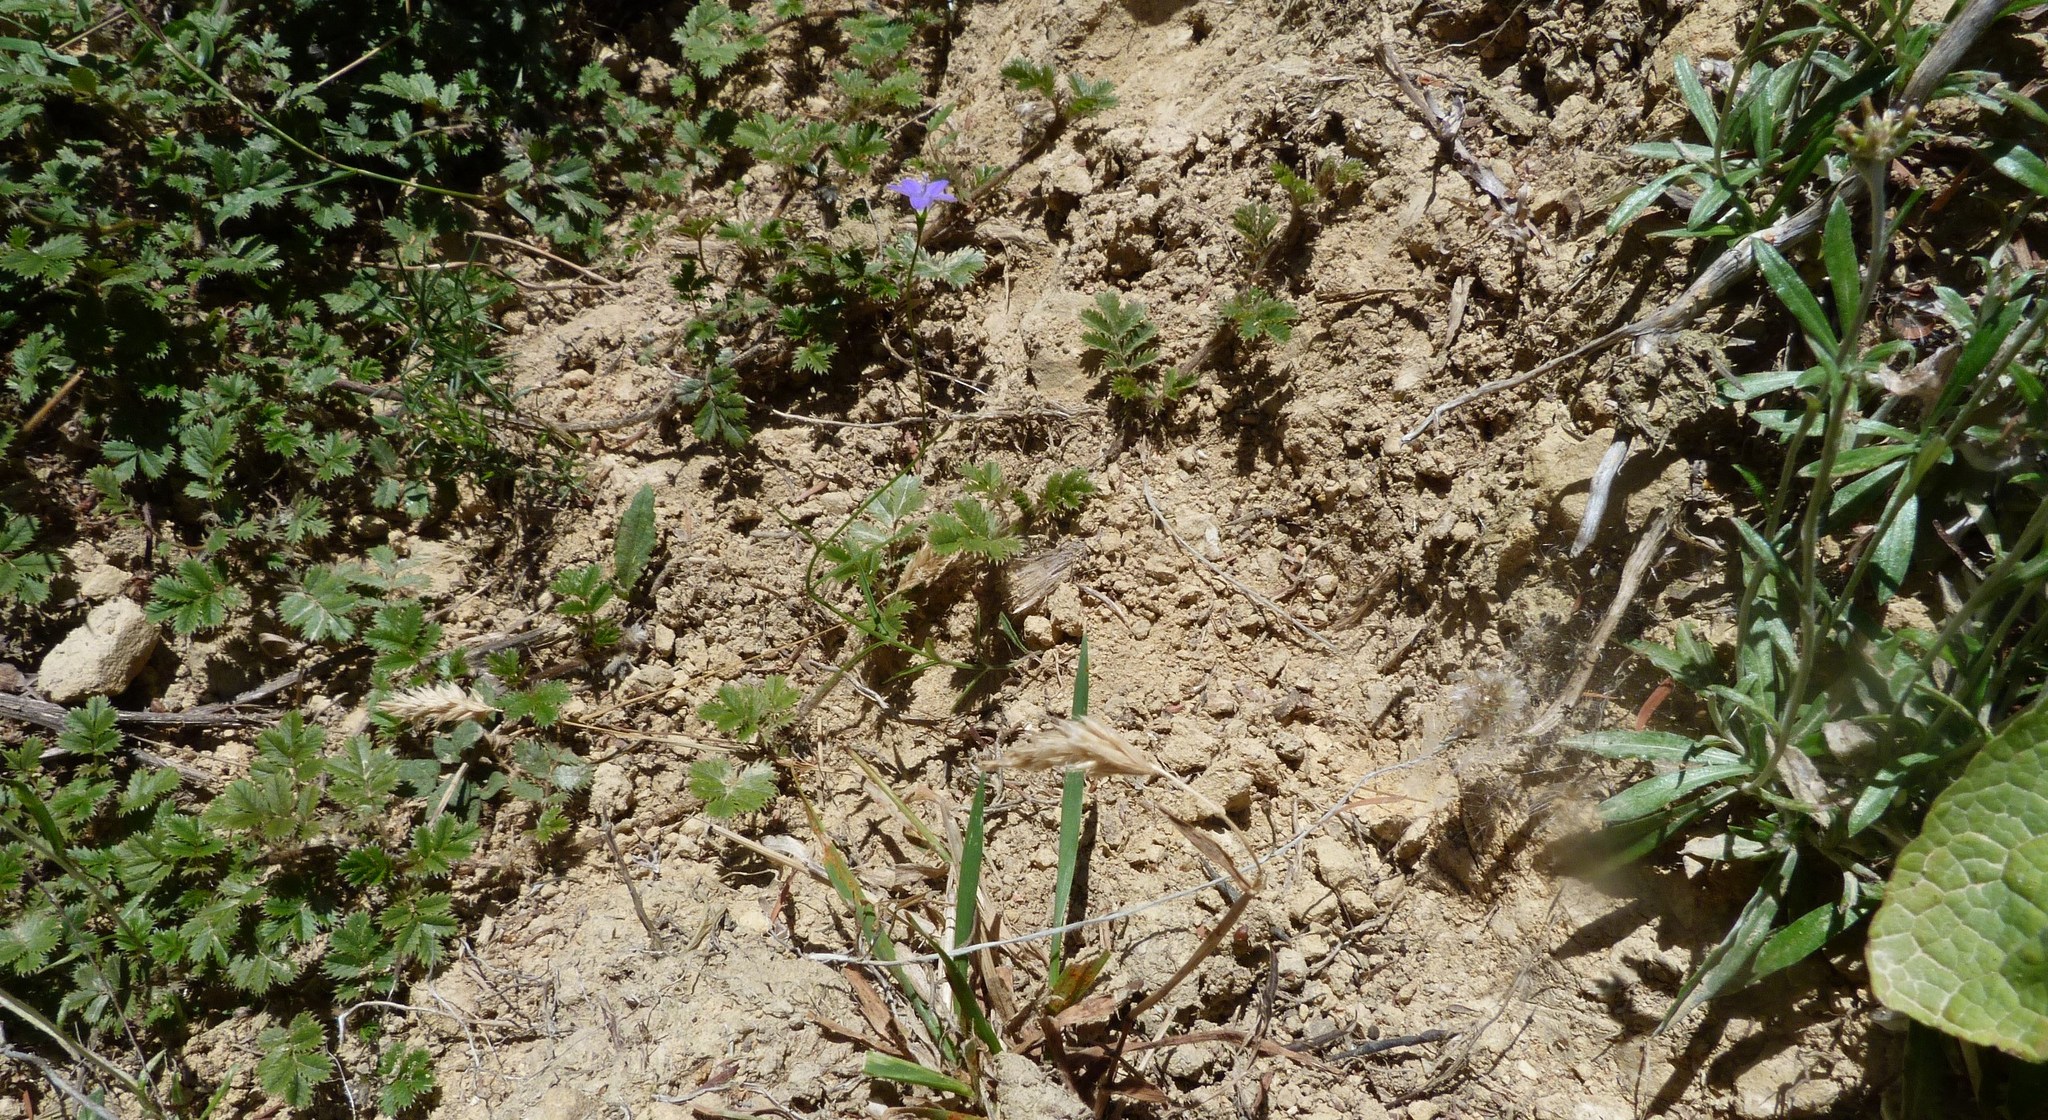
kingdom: Plantae
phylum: Tracheophyta
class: Magnoliopsida
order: Asterales
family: Campanulaceae
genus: Wahlenbergia
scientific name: Wahlenbergia violacea
